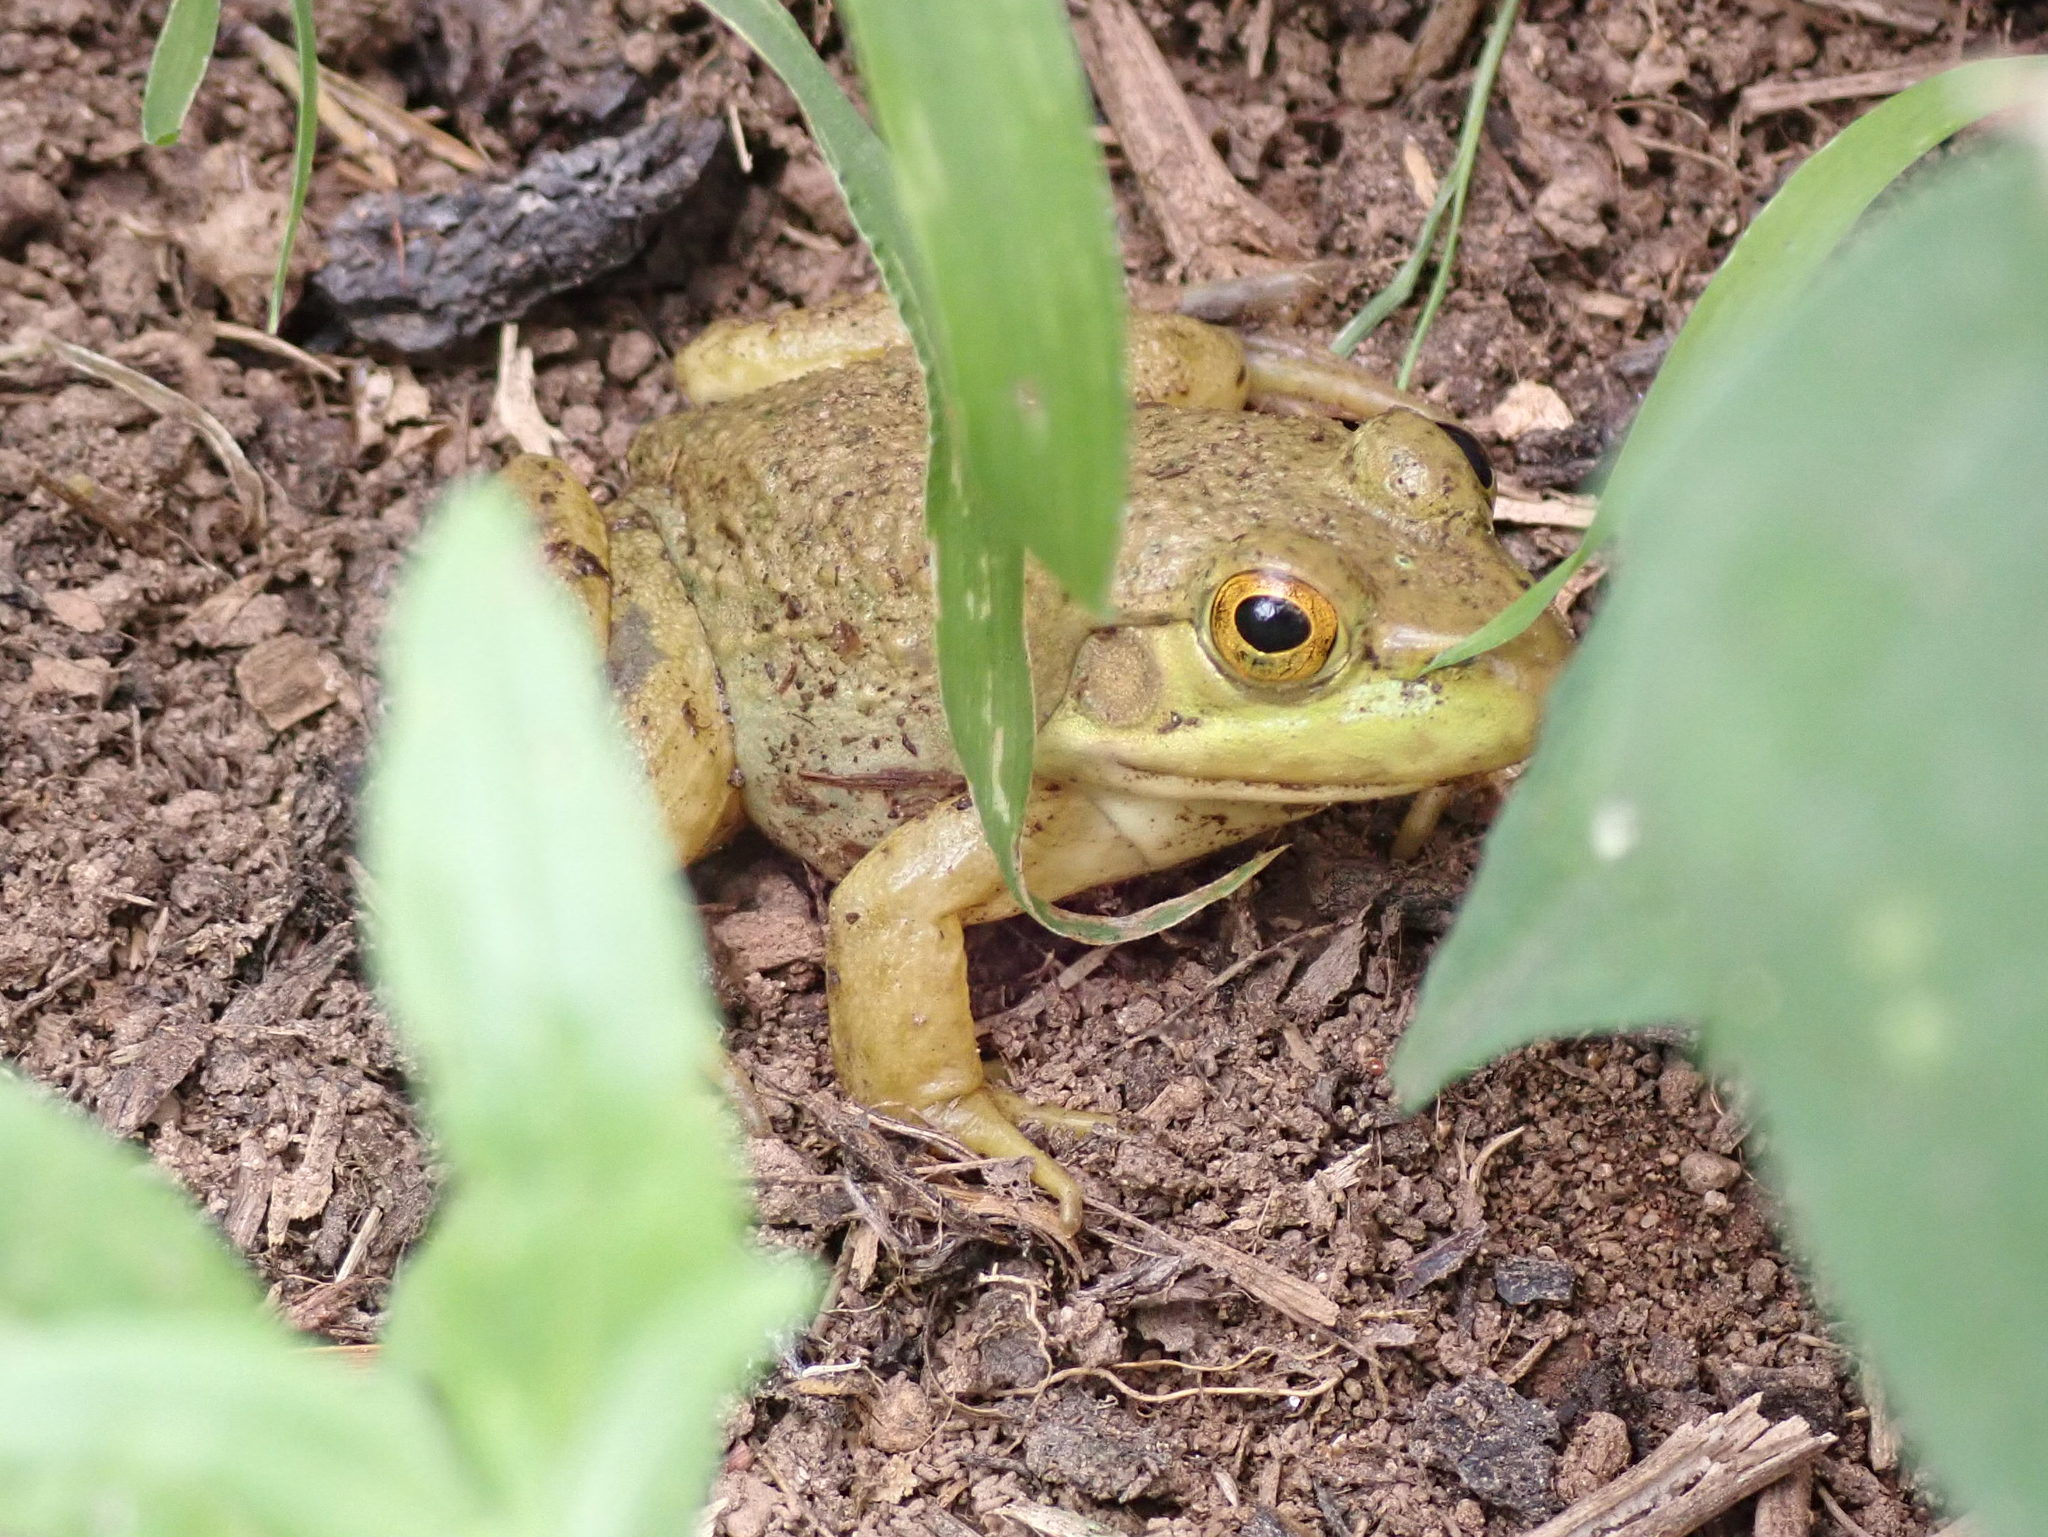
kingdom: Animalia
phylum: Chordata
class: Amphibia
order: Anura
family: Ranidae
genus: Lithobates
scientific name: Lithobates catesbeianus
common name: American bullfrog
